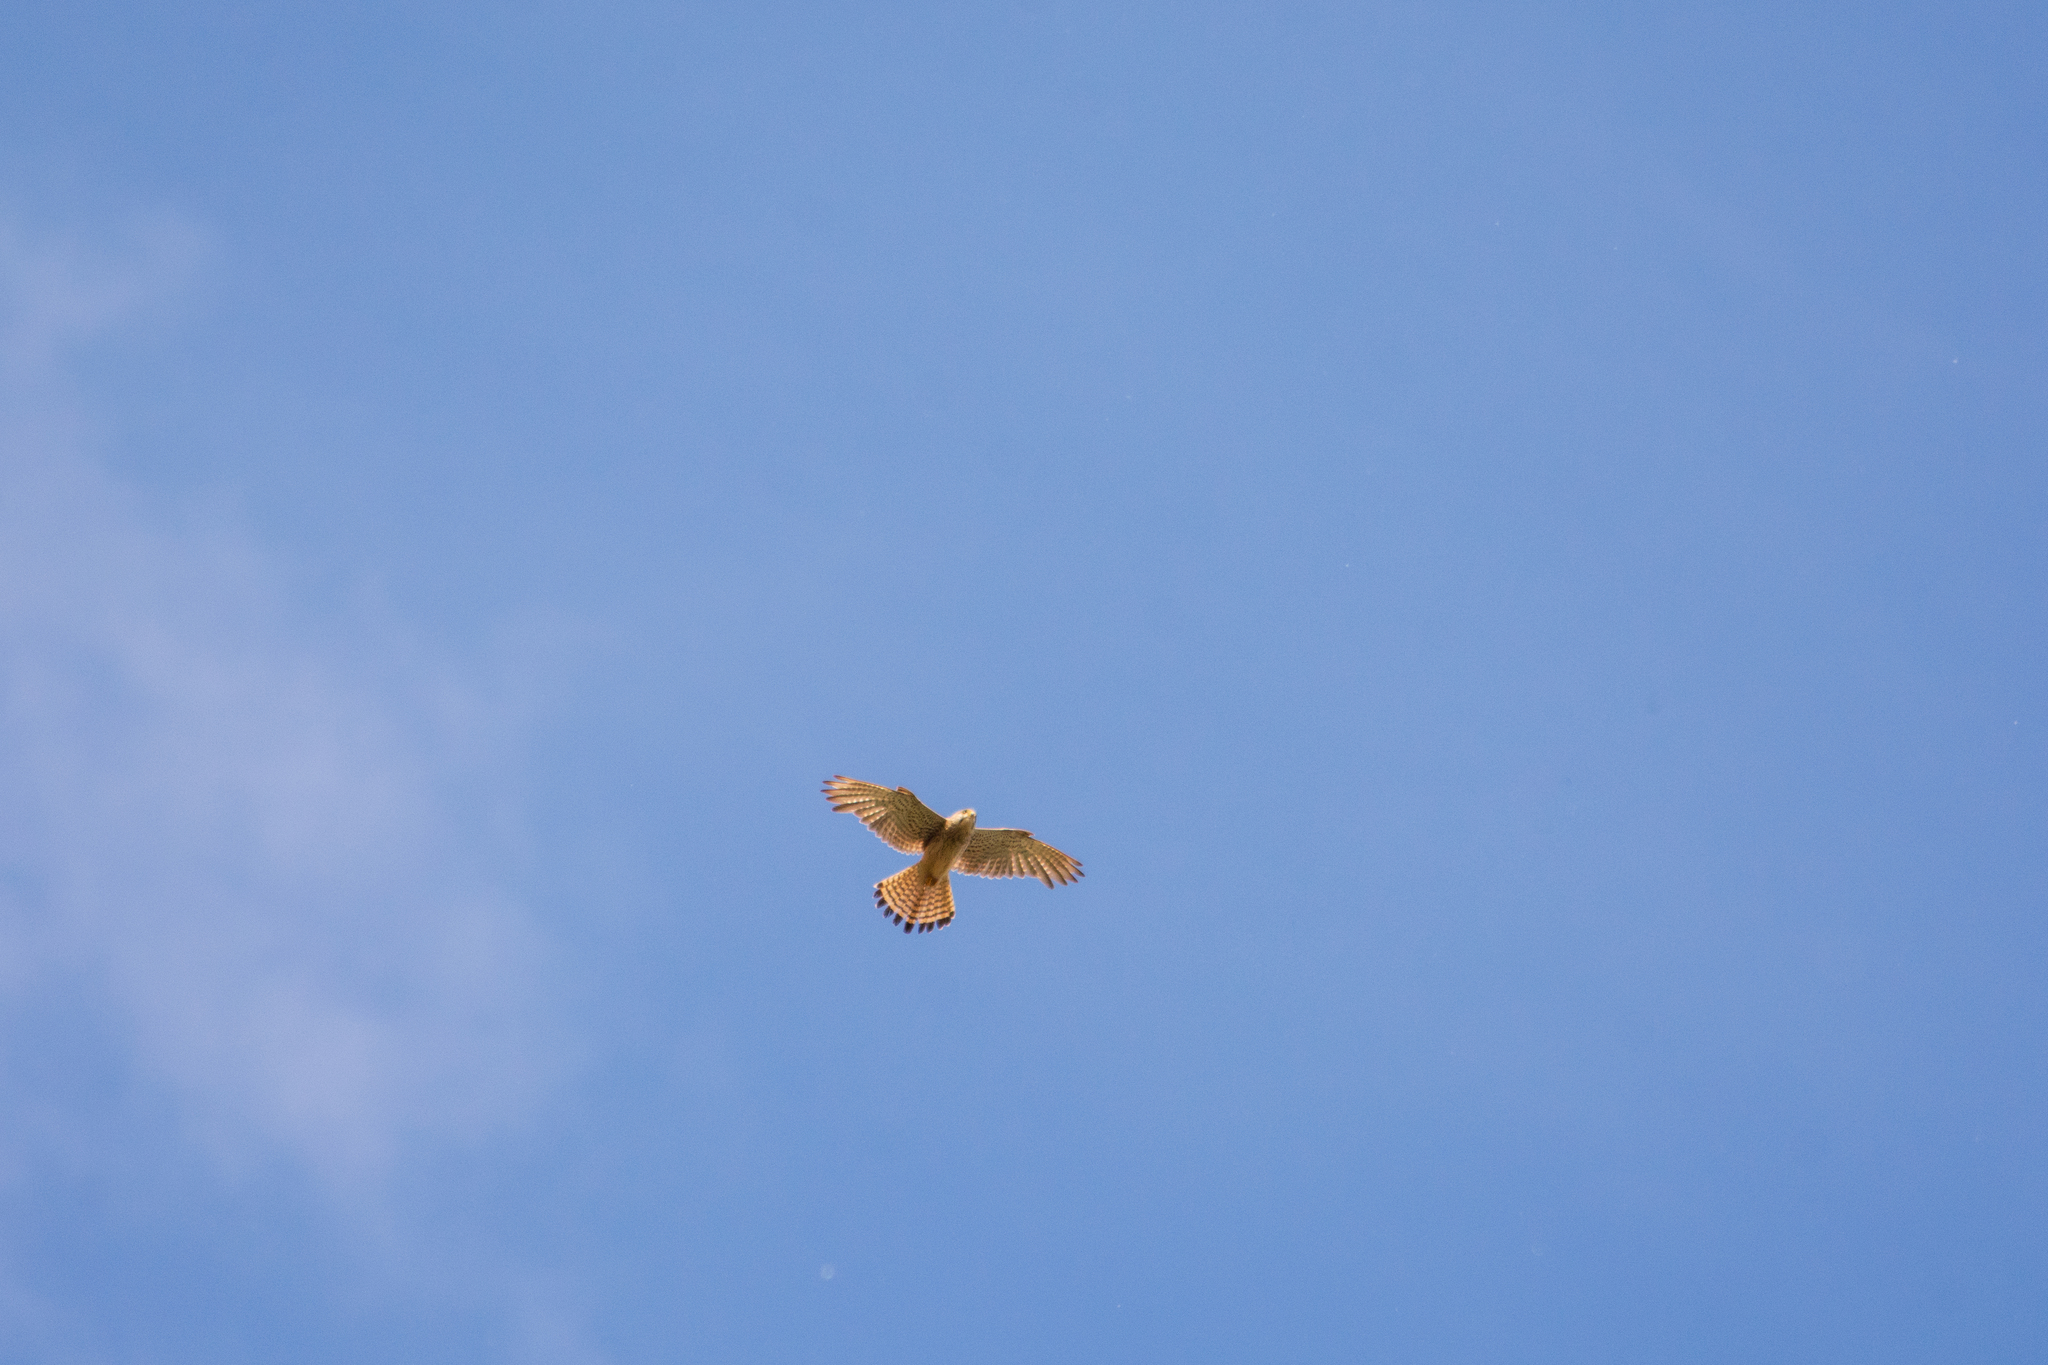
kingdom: Animalia
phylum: Chordata
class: Aves
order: Falconiformes
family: Falconidae
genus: Falco
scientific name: Falco tinnunculus
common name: Common kestrel
